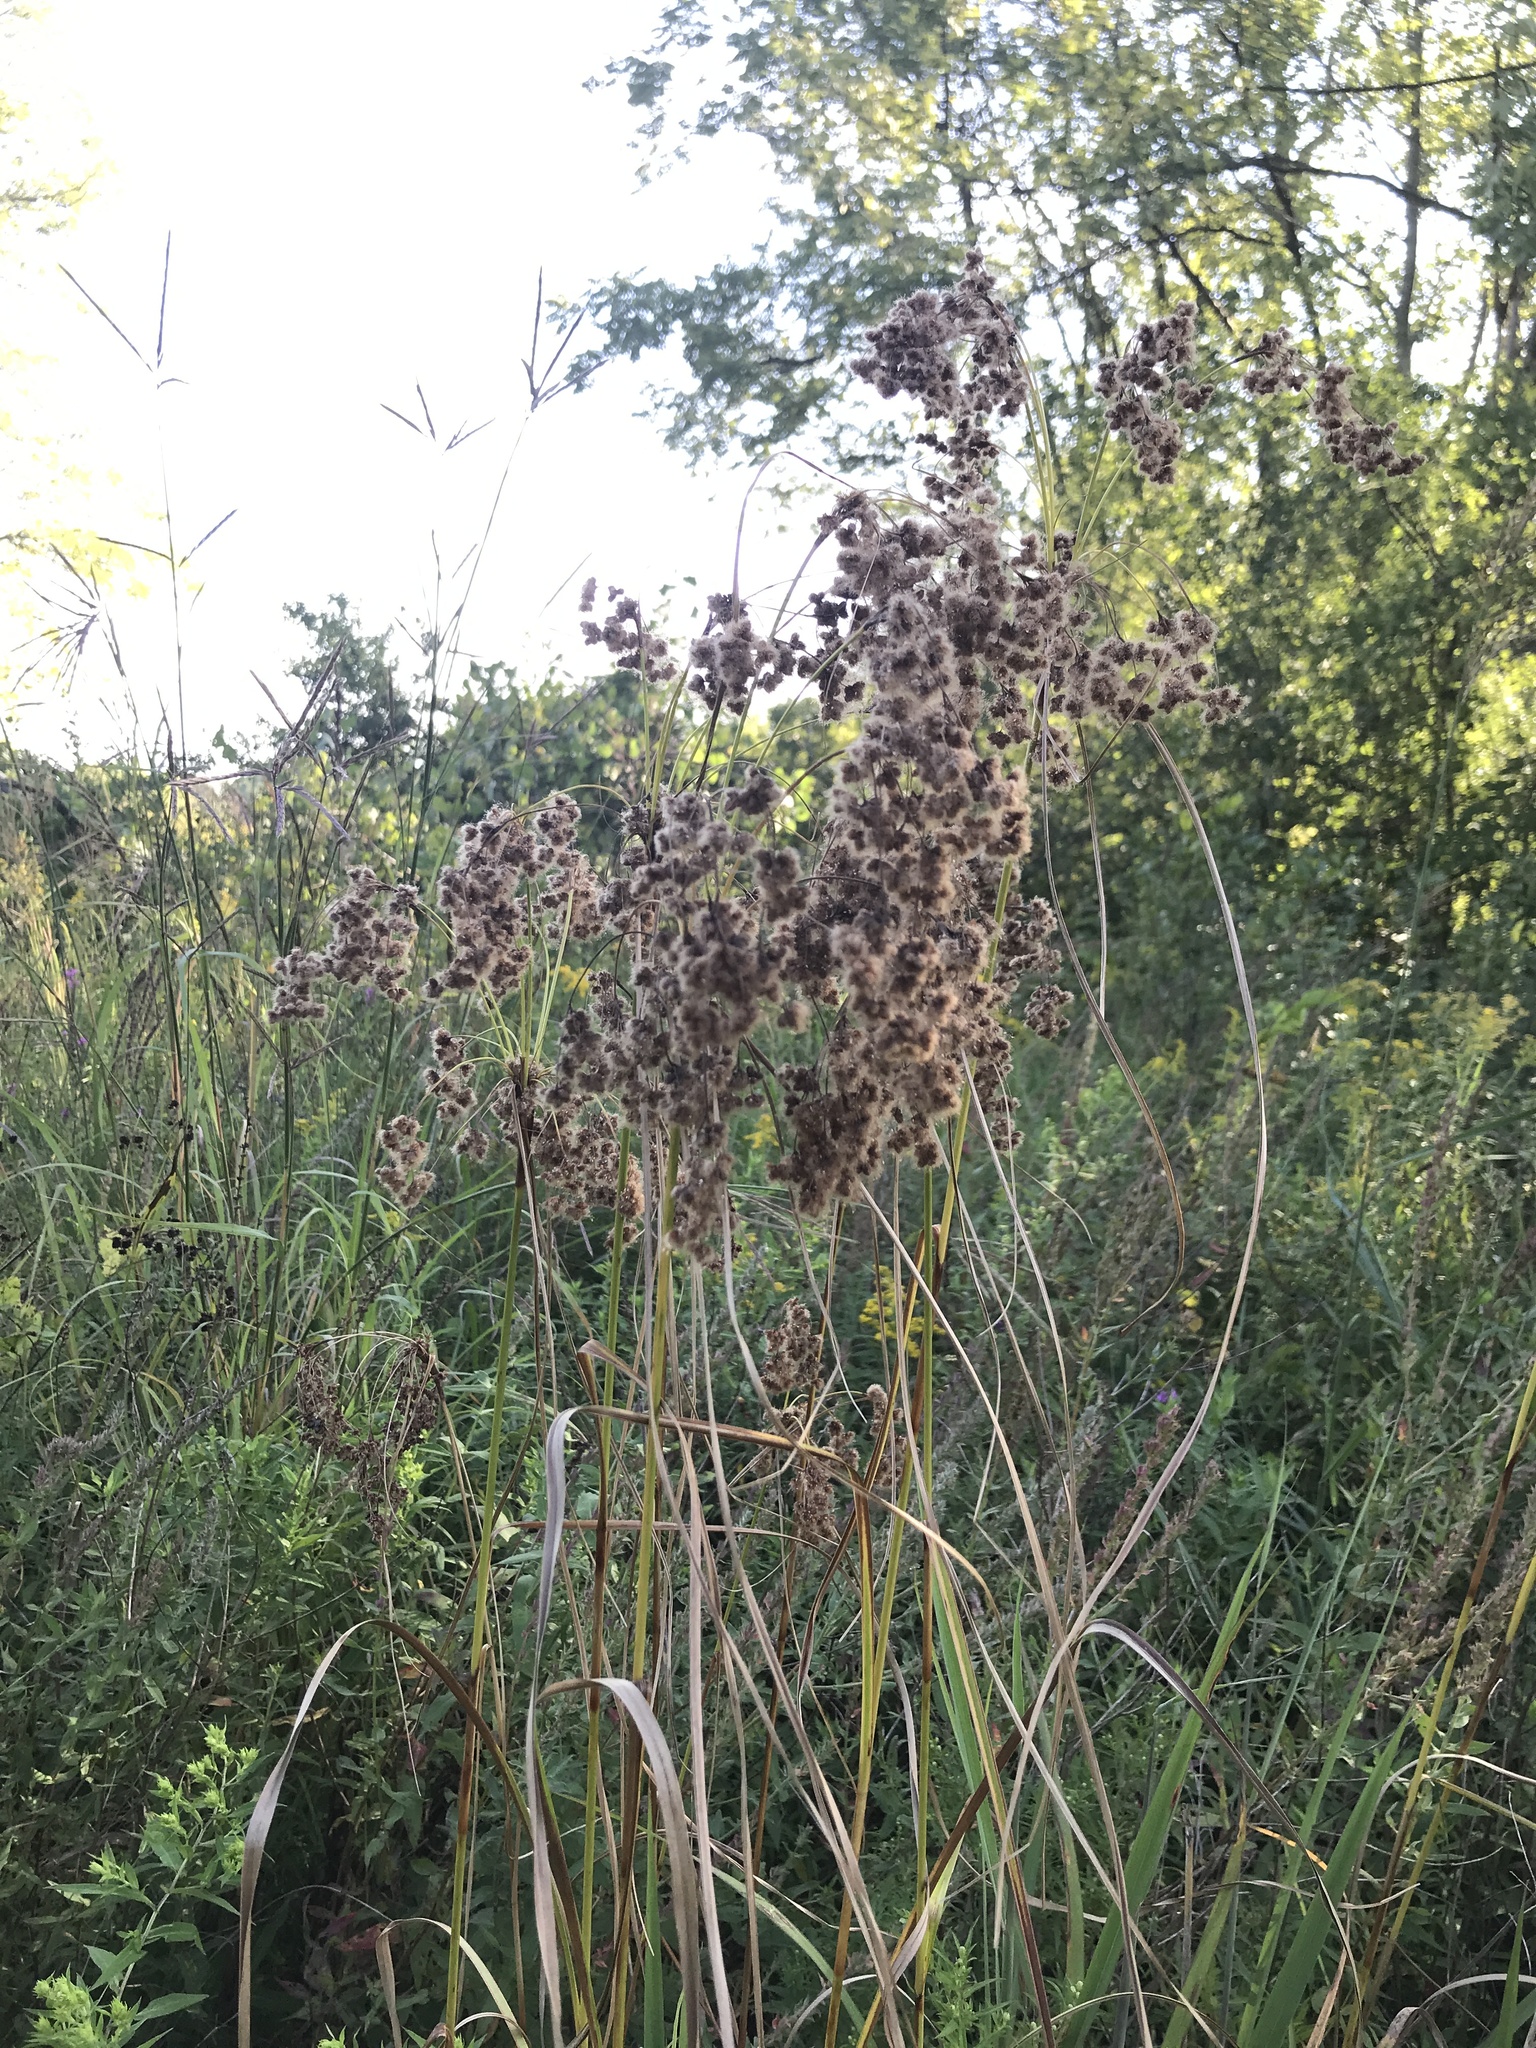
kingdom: Plantae
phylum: Tracheophyta
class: Liliopsida
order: Poales
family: Cyperaceae
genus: Scirpus
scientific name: Scirpus cyperinus
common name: Black-sheathed bulrush
